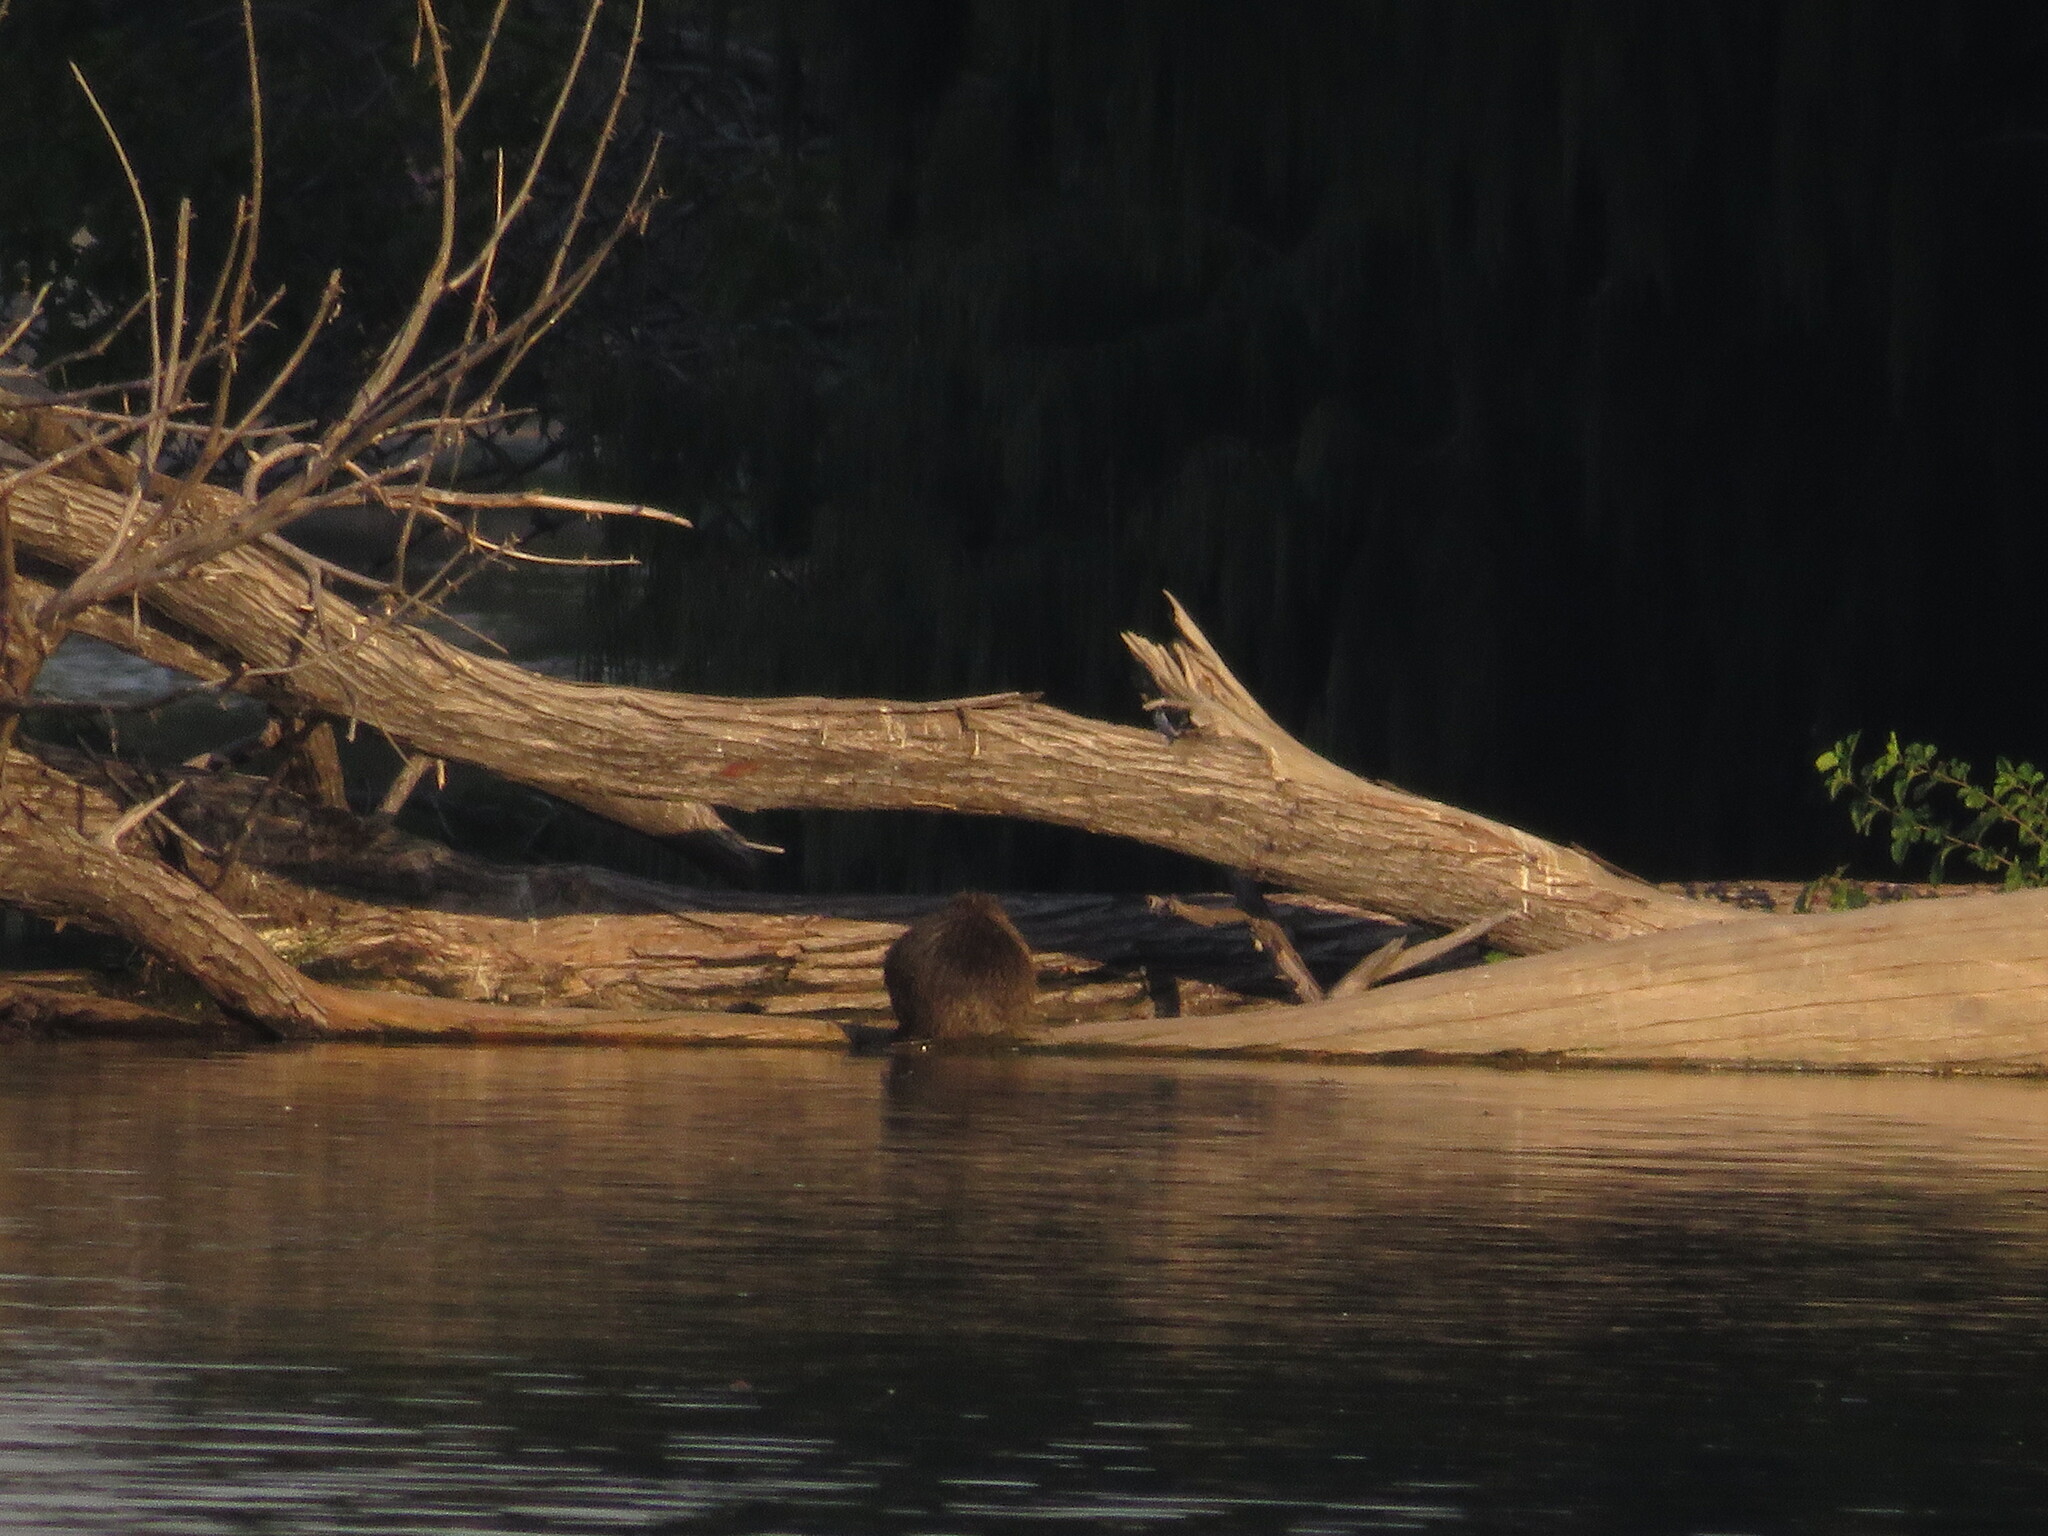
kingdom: Animalia
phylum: Chordata
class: Mammalia
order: Rodentia
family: Myocastoridae
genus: Myocastor
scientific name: Myocastor coypus
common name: Coypu
